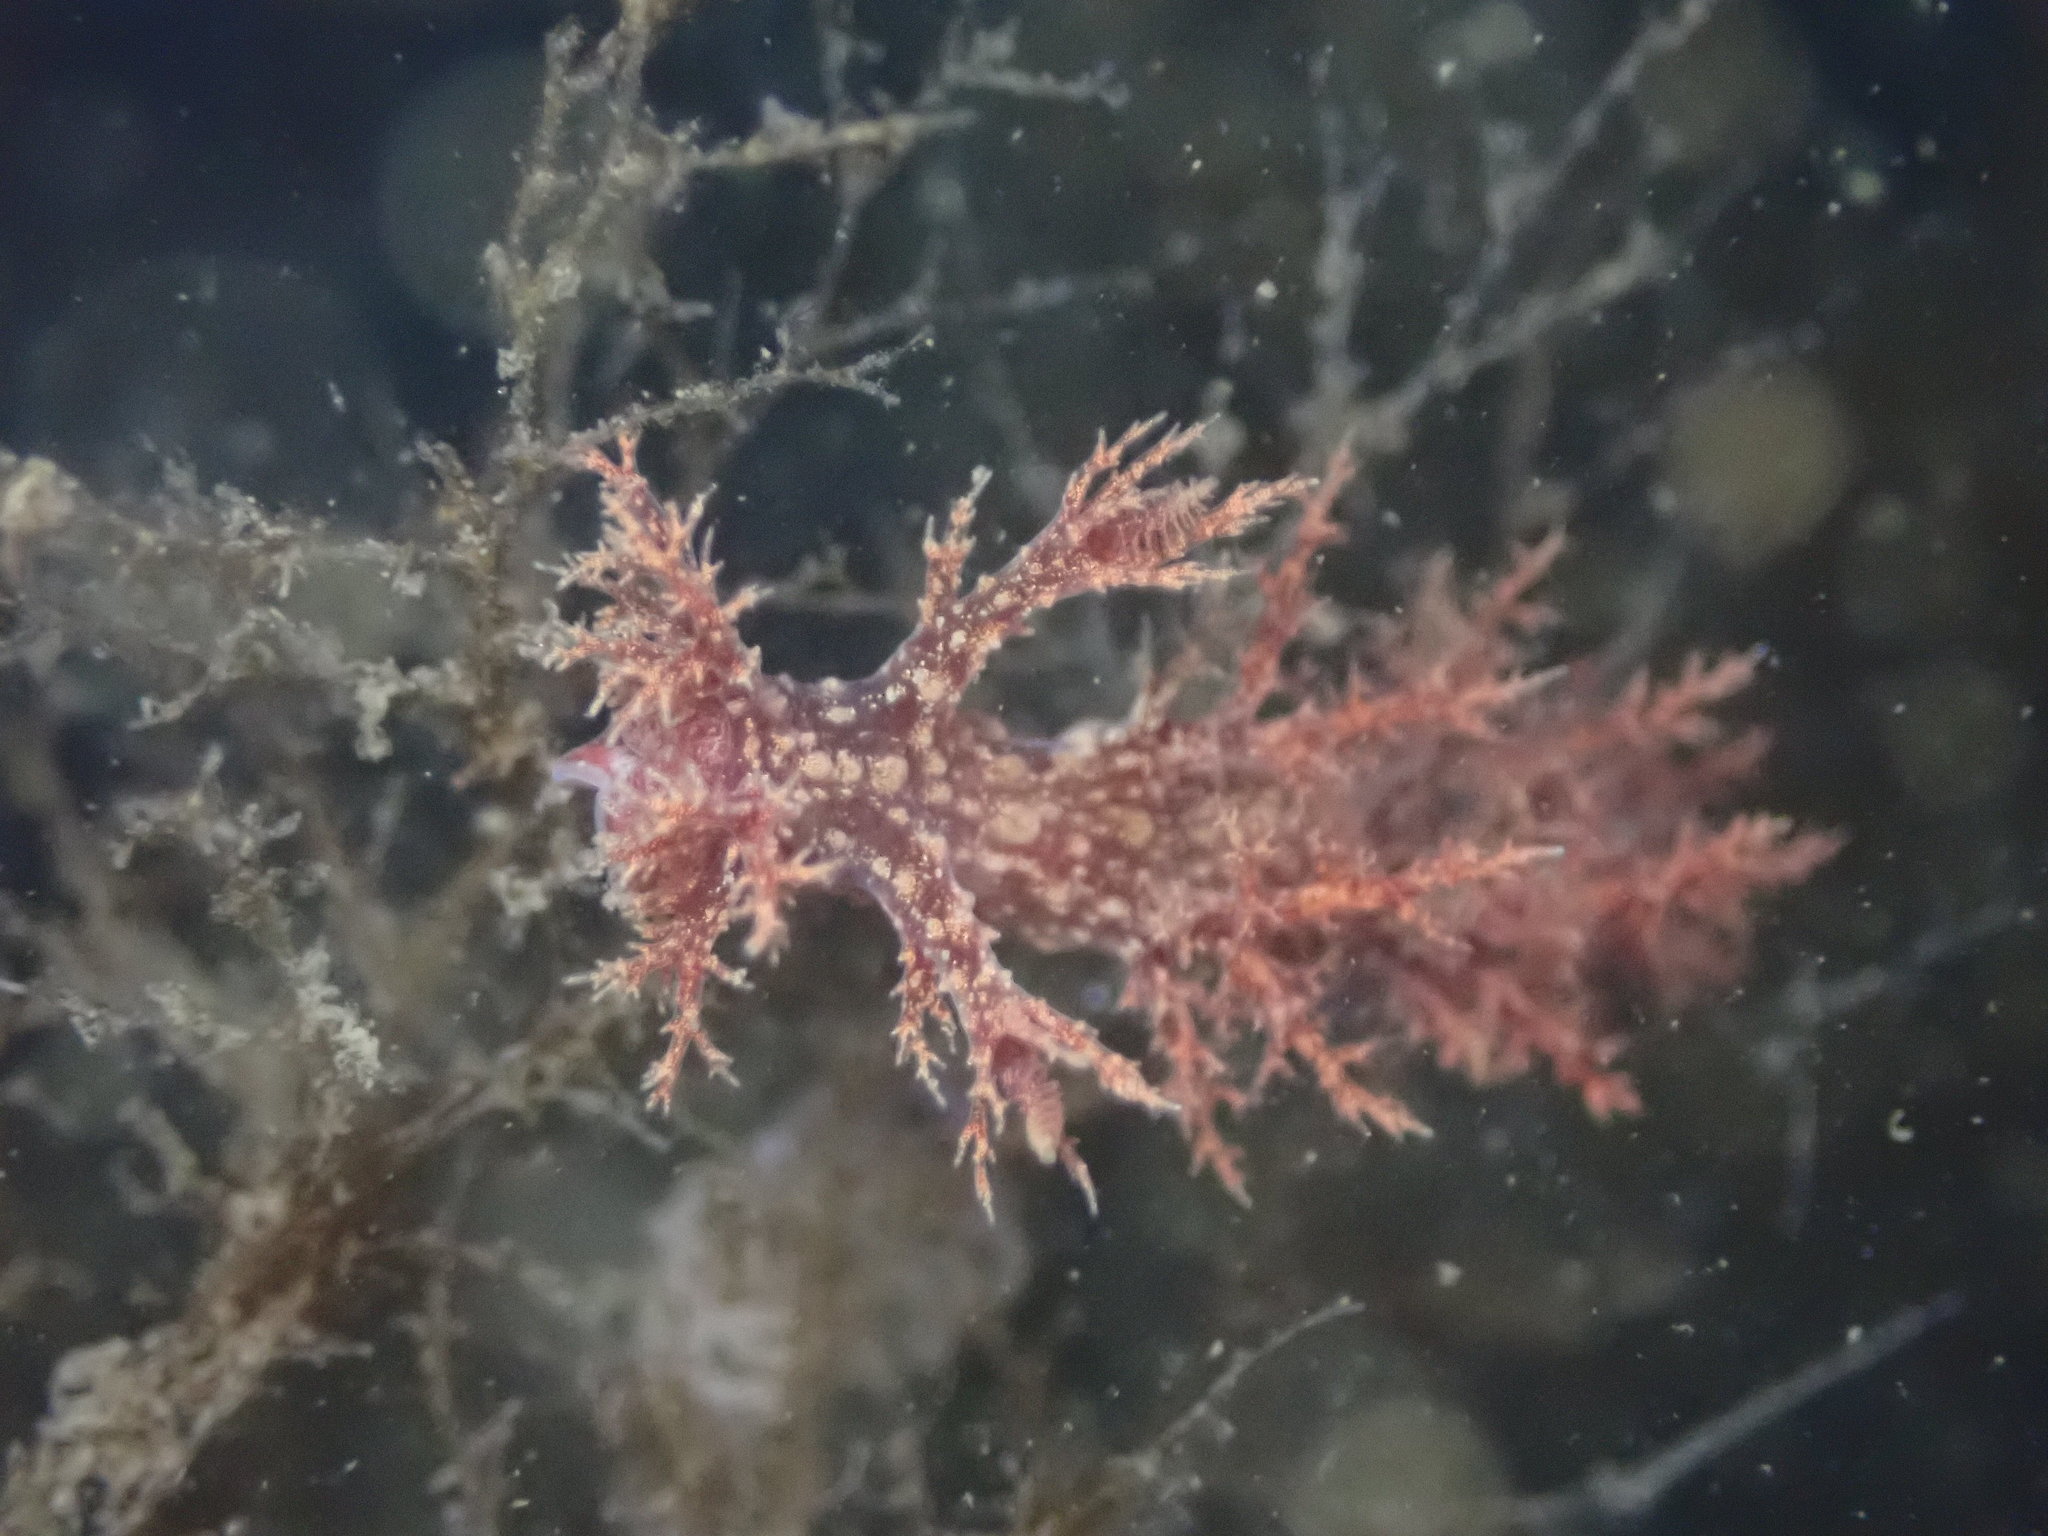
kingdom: Animalia
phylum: Mollusca
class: Gastropoda
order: Nudibranchia
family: Dendronotidae
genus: Dendronotus
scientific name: Dendronotus venustus
